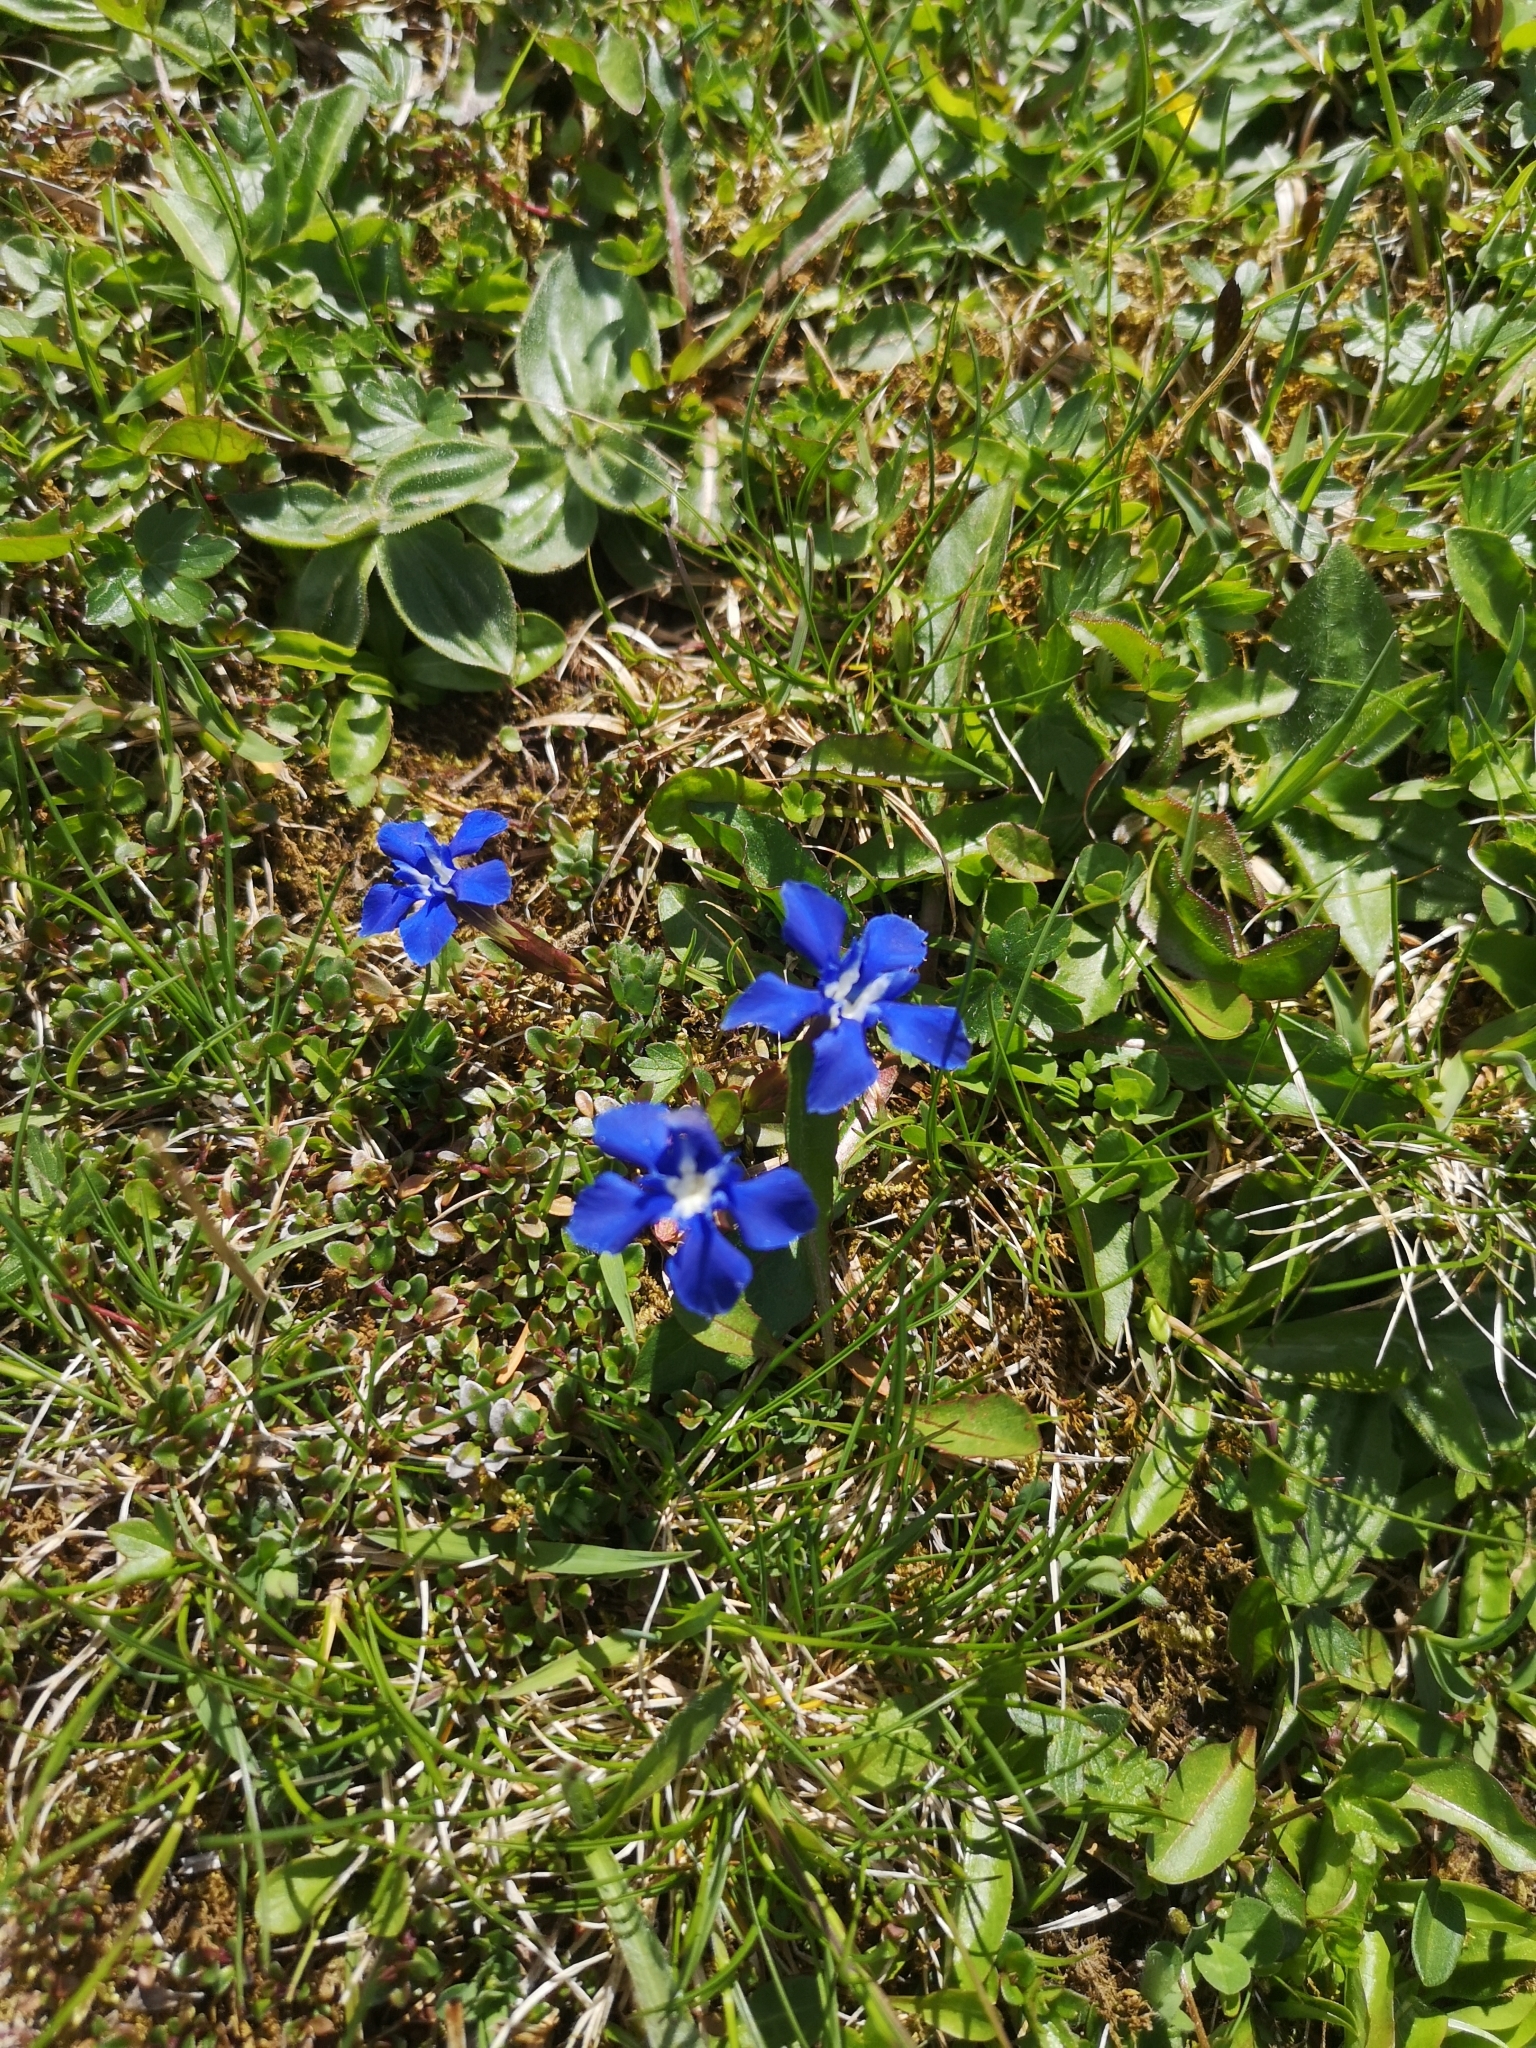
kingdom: Plantae
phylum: Tracheophyta
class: Magnoliopsida
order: Gentianales
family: Gentianaceae
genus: Gentiana
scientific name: Gentiana verna
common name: Spring gentian
